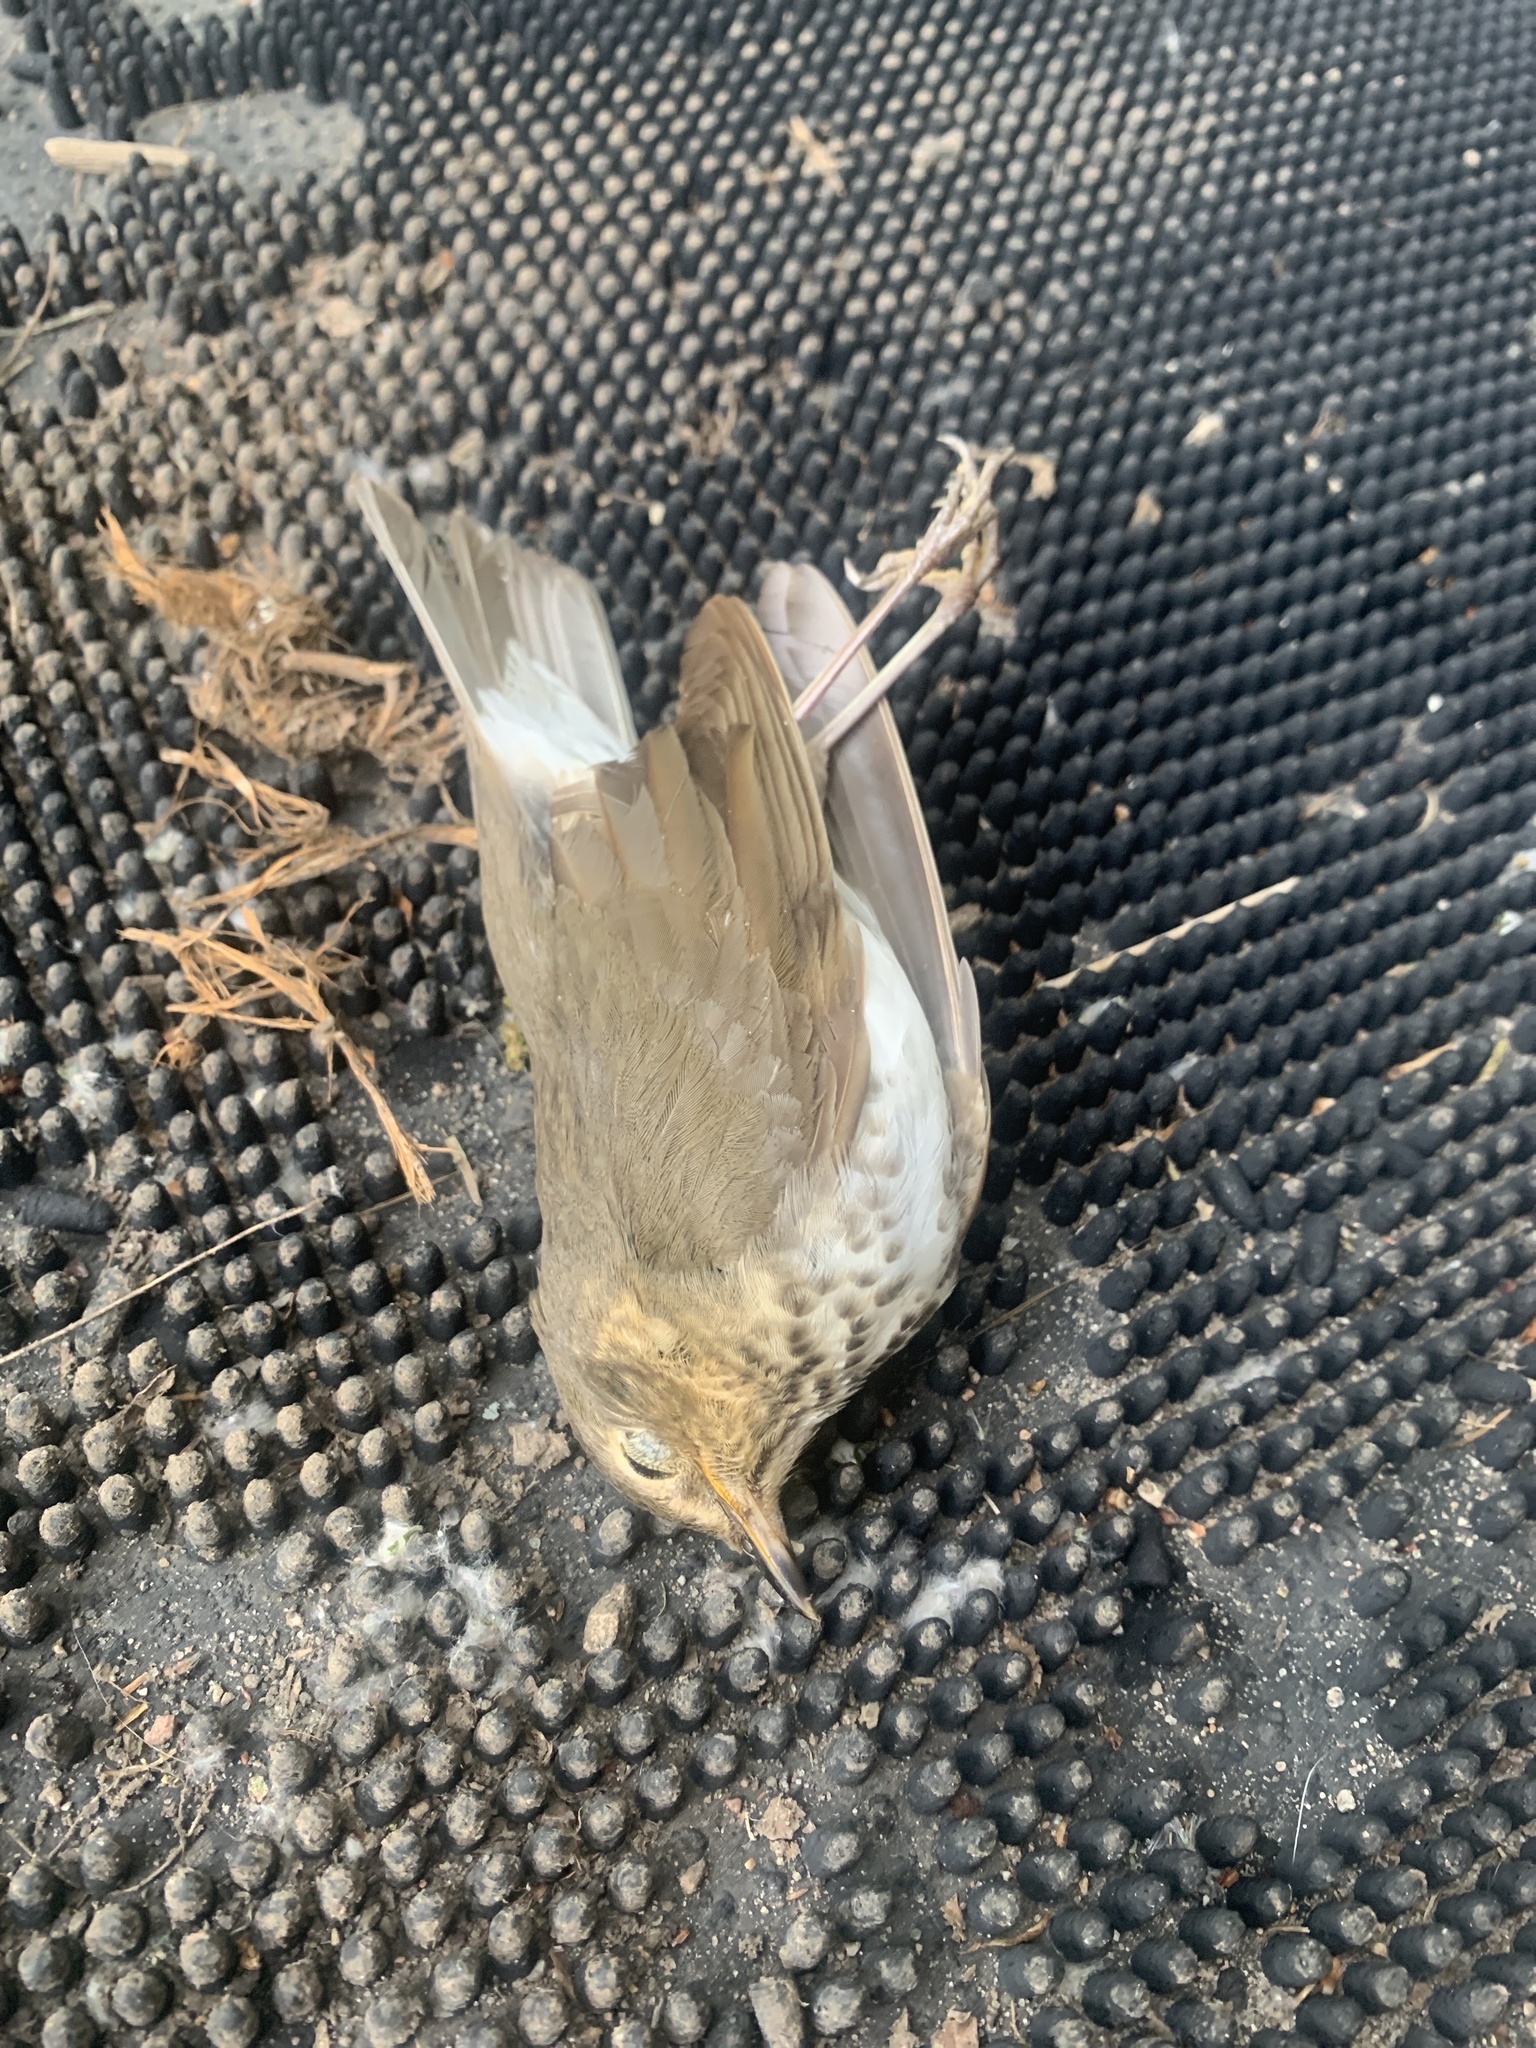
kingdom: Animalia
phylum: Chordata
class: Aves
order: Passeriformes
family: Turdidae
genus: Catharus
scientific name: Catharus ustulatus
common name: Swainson's thrush
